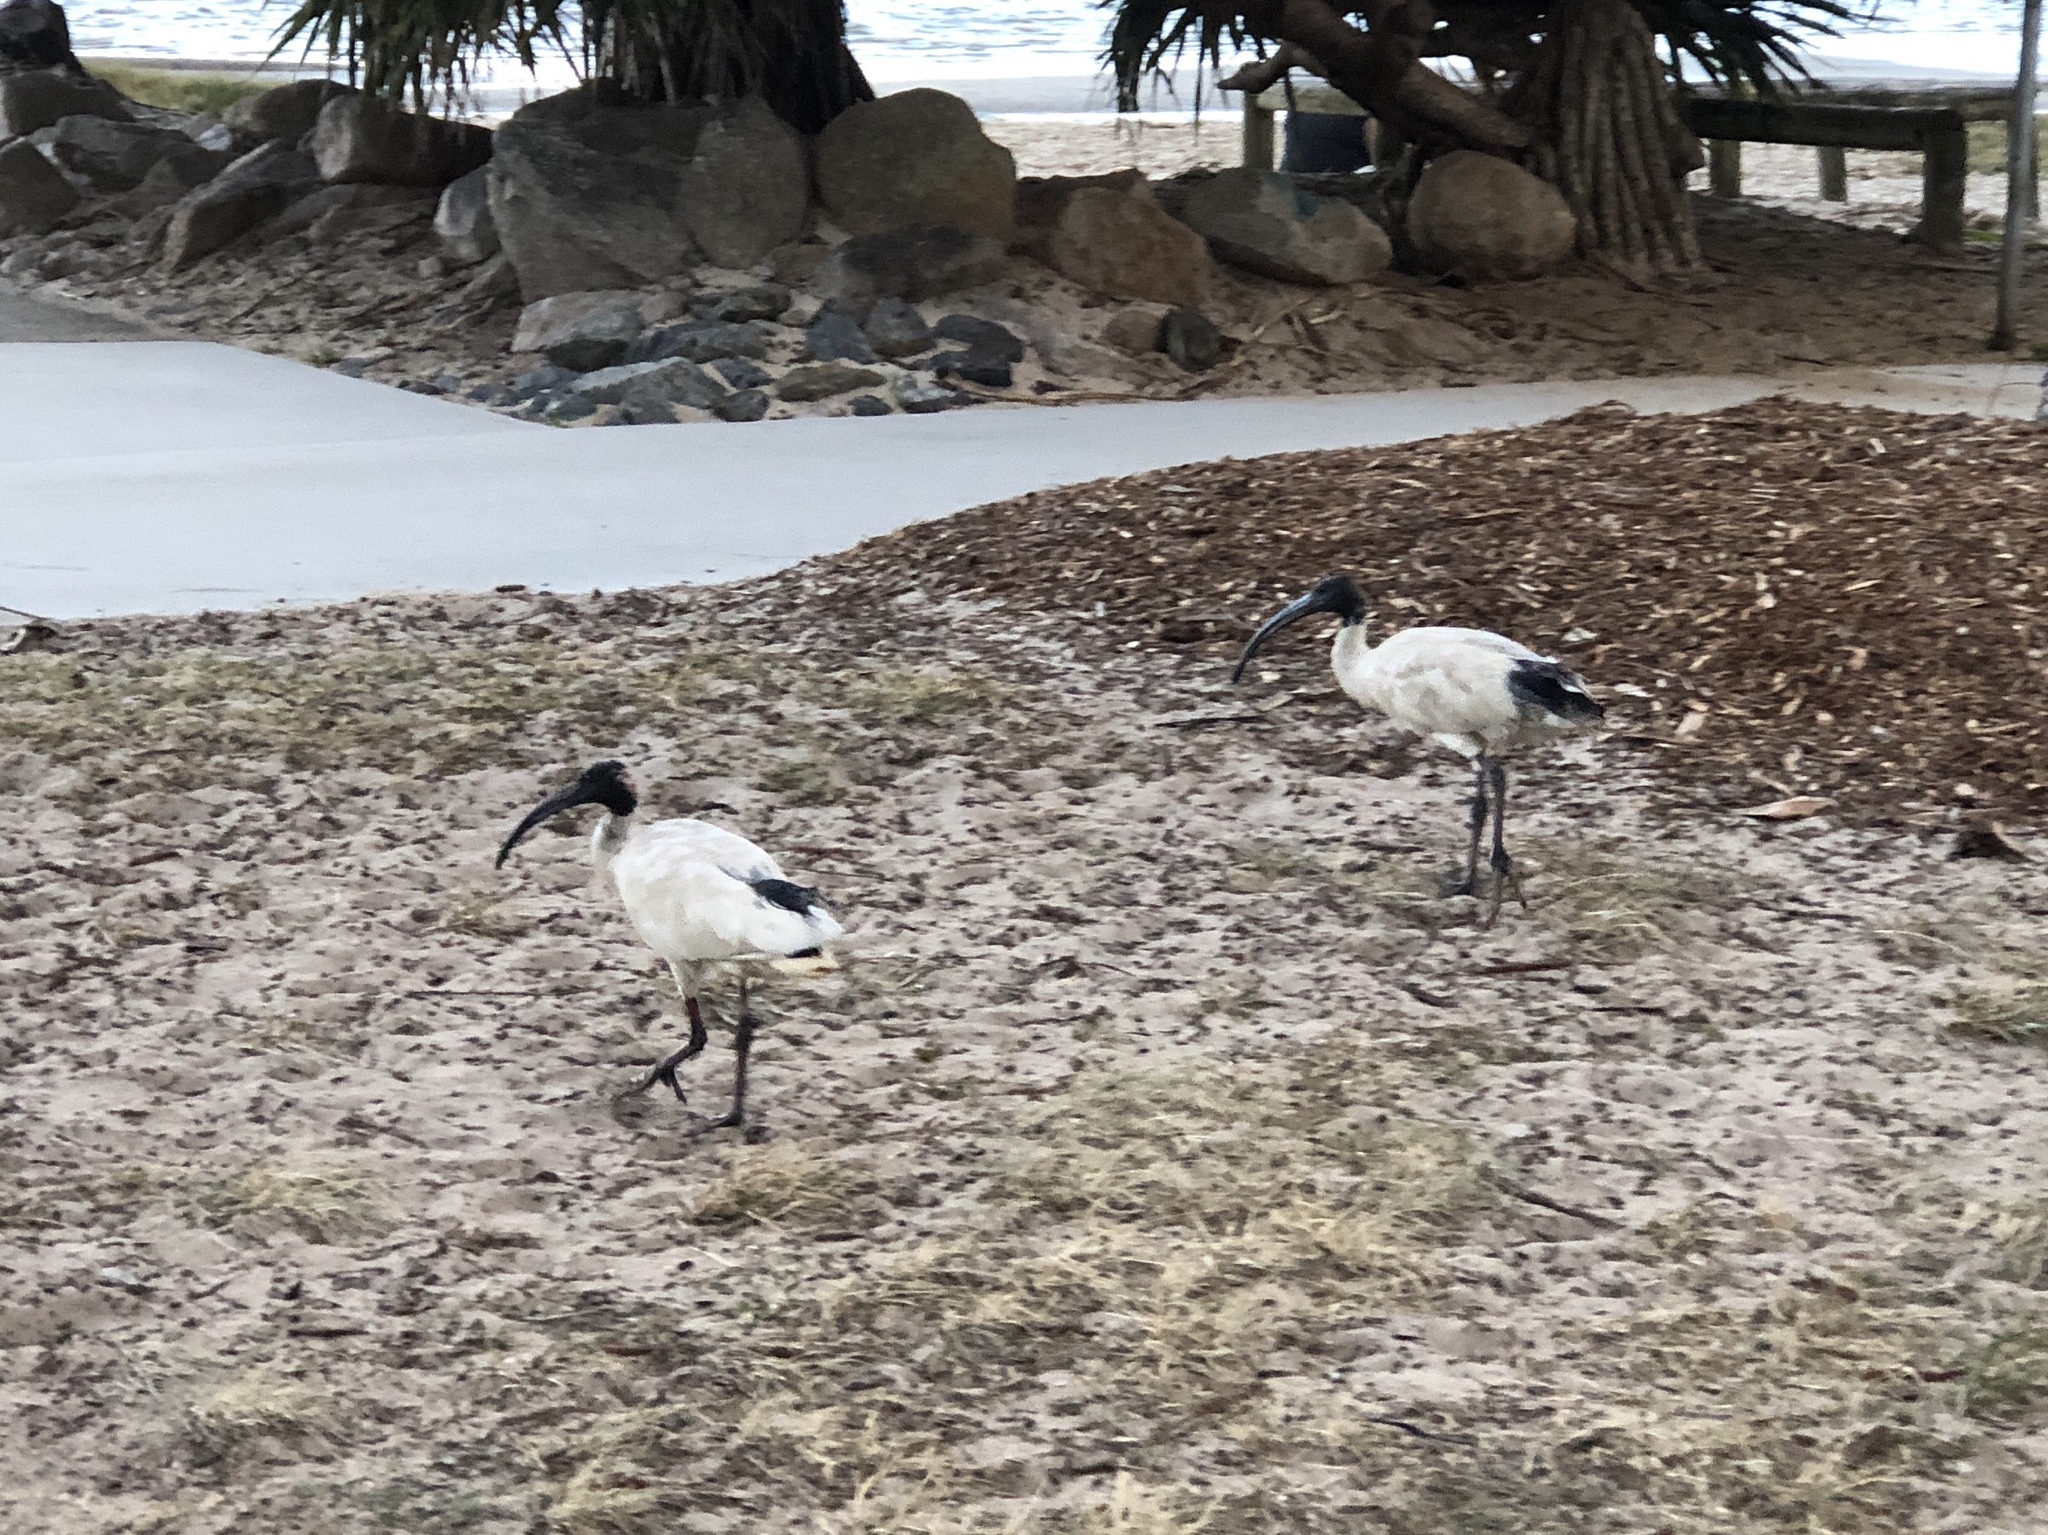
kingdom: Animalia
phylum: Chordata
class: Aves
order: Pelecaniformes
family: Threskiornithidae
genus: Threskiornis
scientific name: Threskiornis molucca
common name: Australian white ibis
